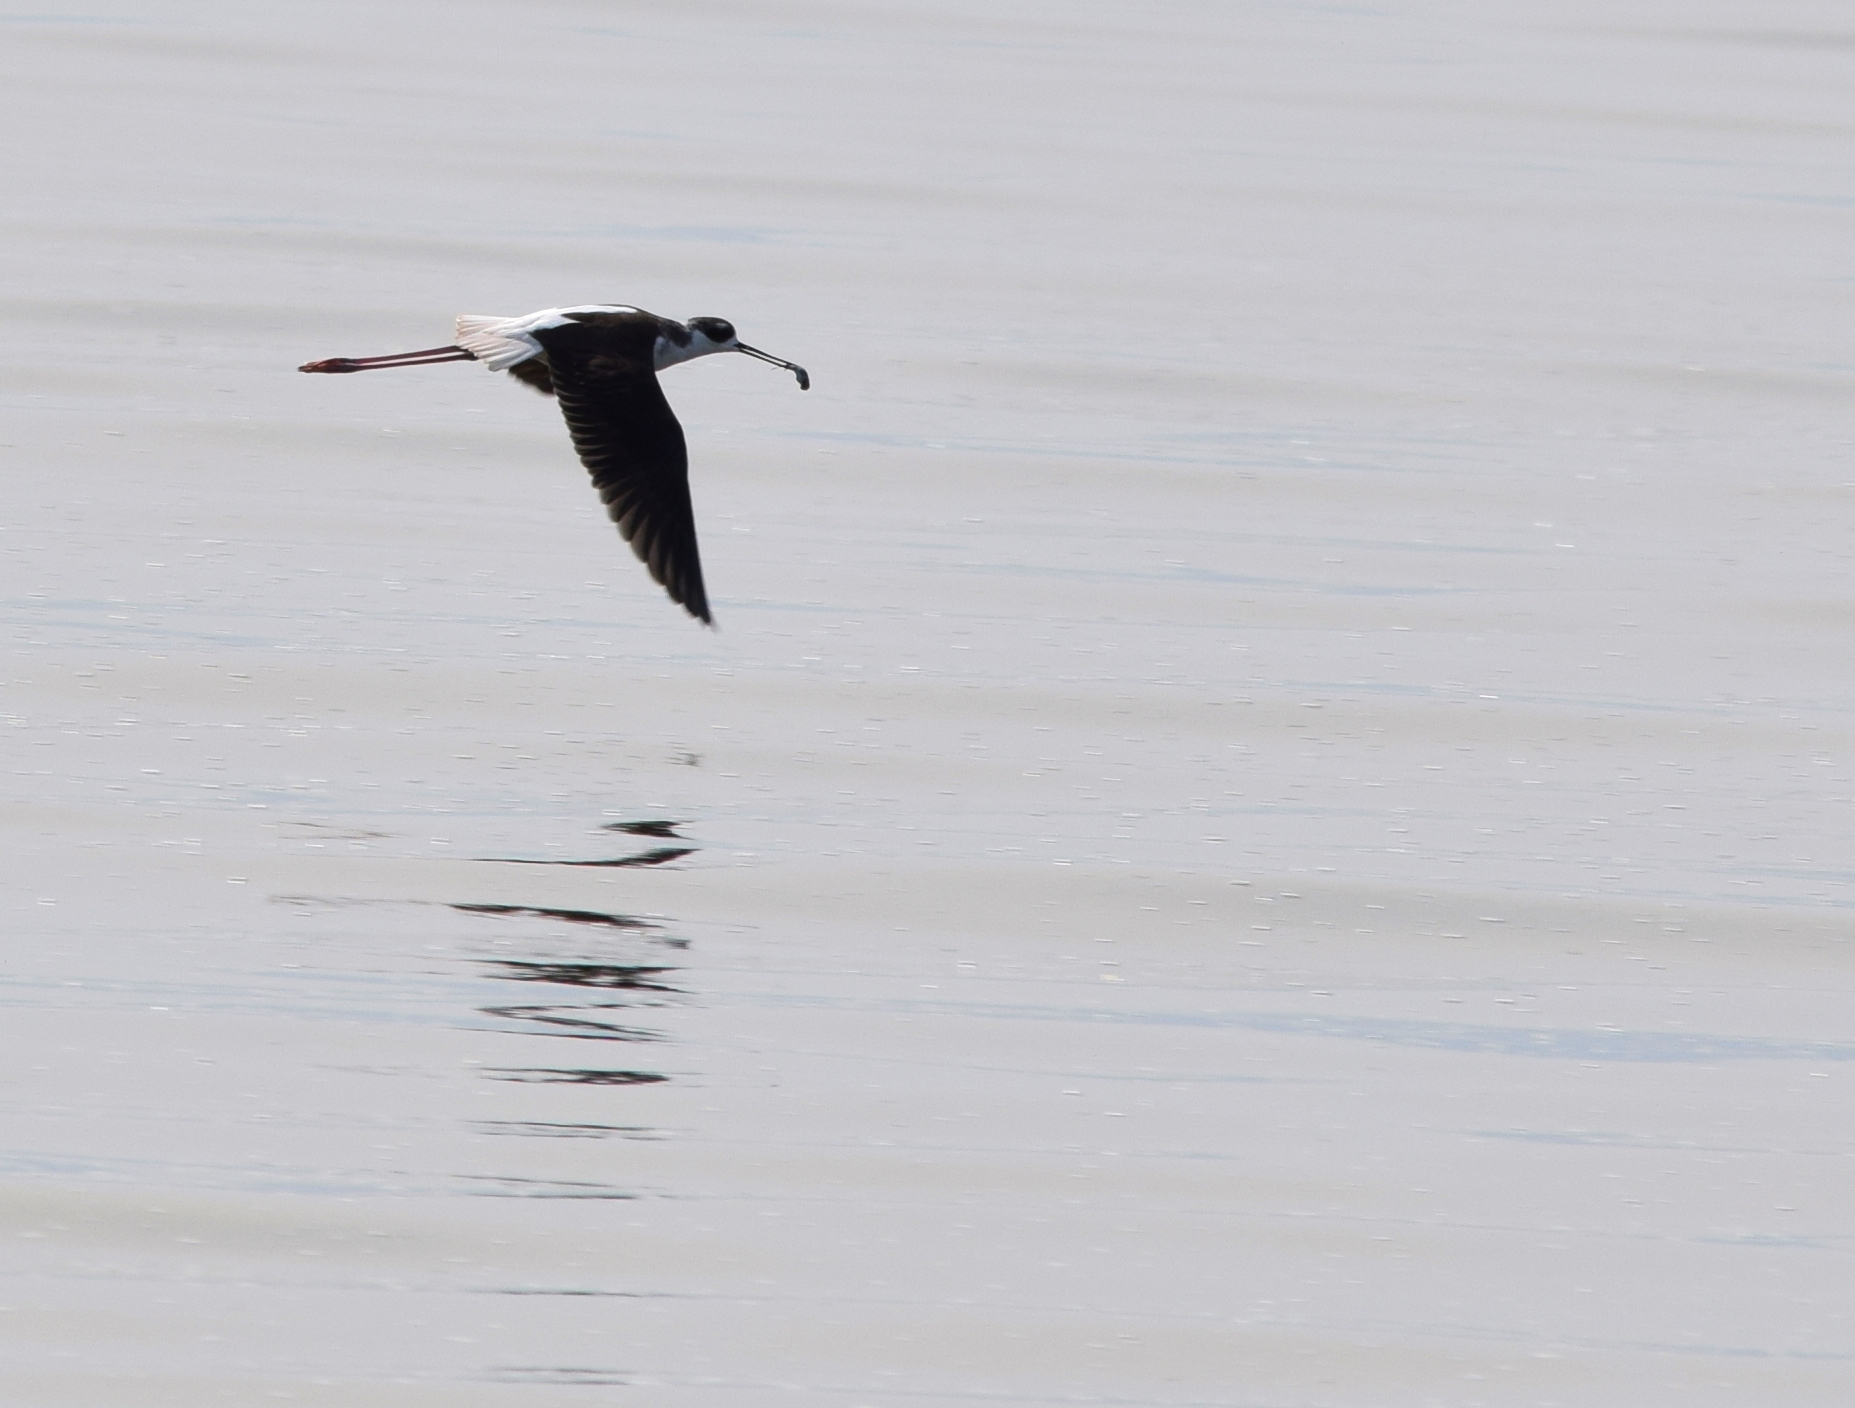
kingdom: Animalia
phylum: Chordata
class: Aves
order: Charadriiformes
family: Recurvirostridae
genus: Himantopus
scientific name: Himantopus mexicanus
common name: Black-necked stilt
